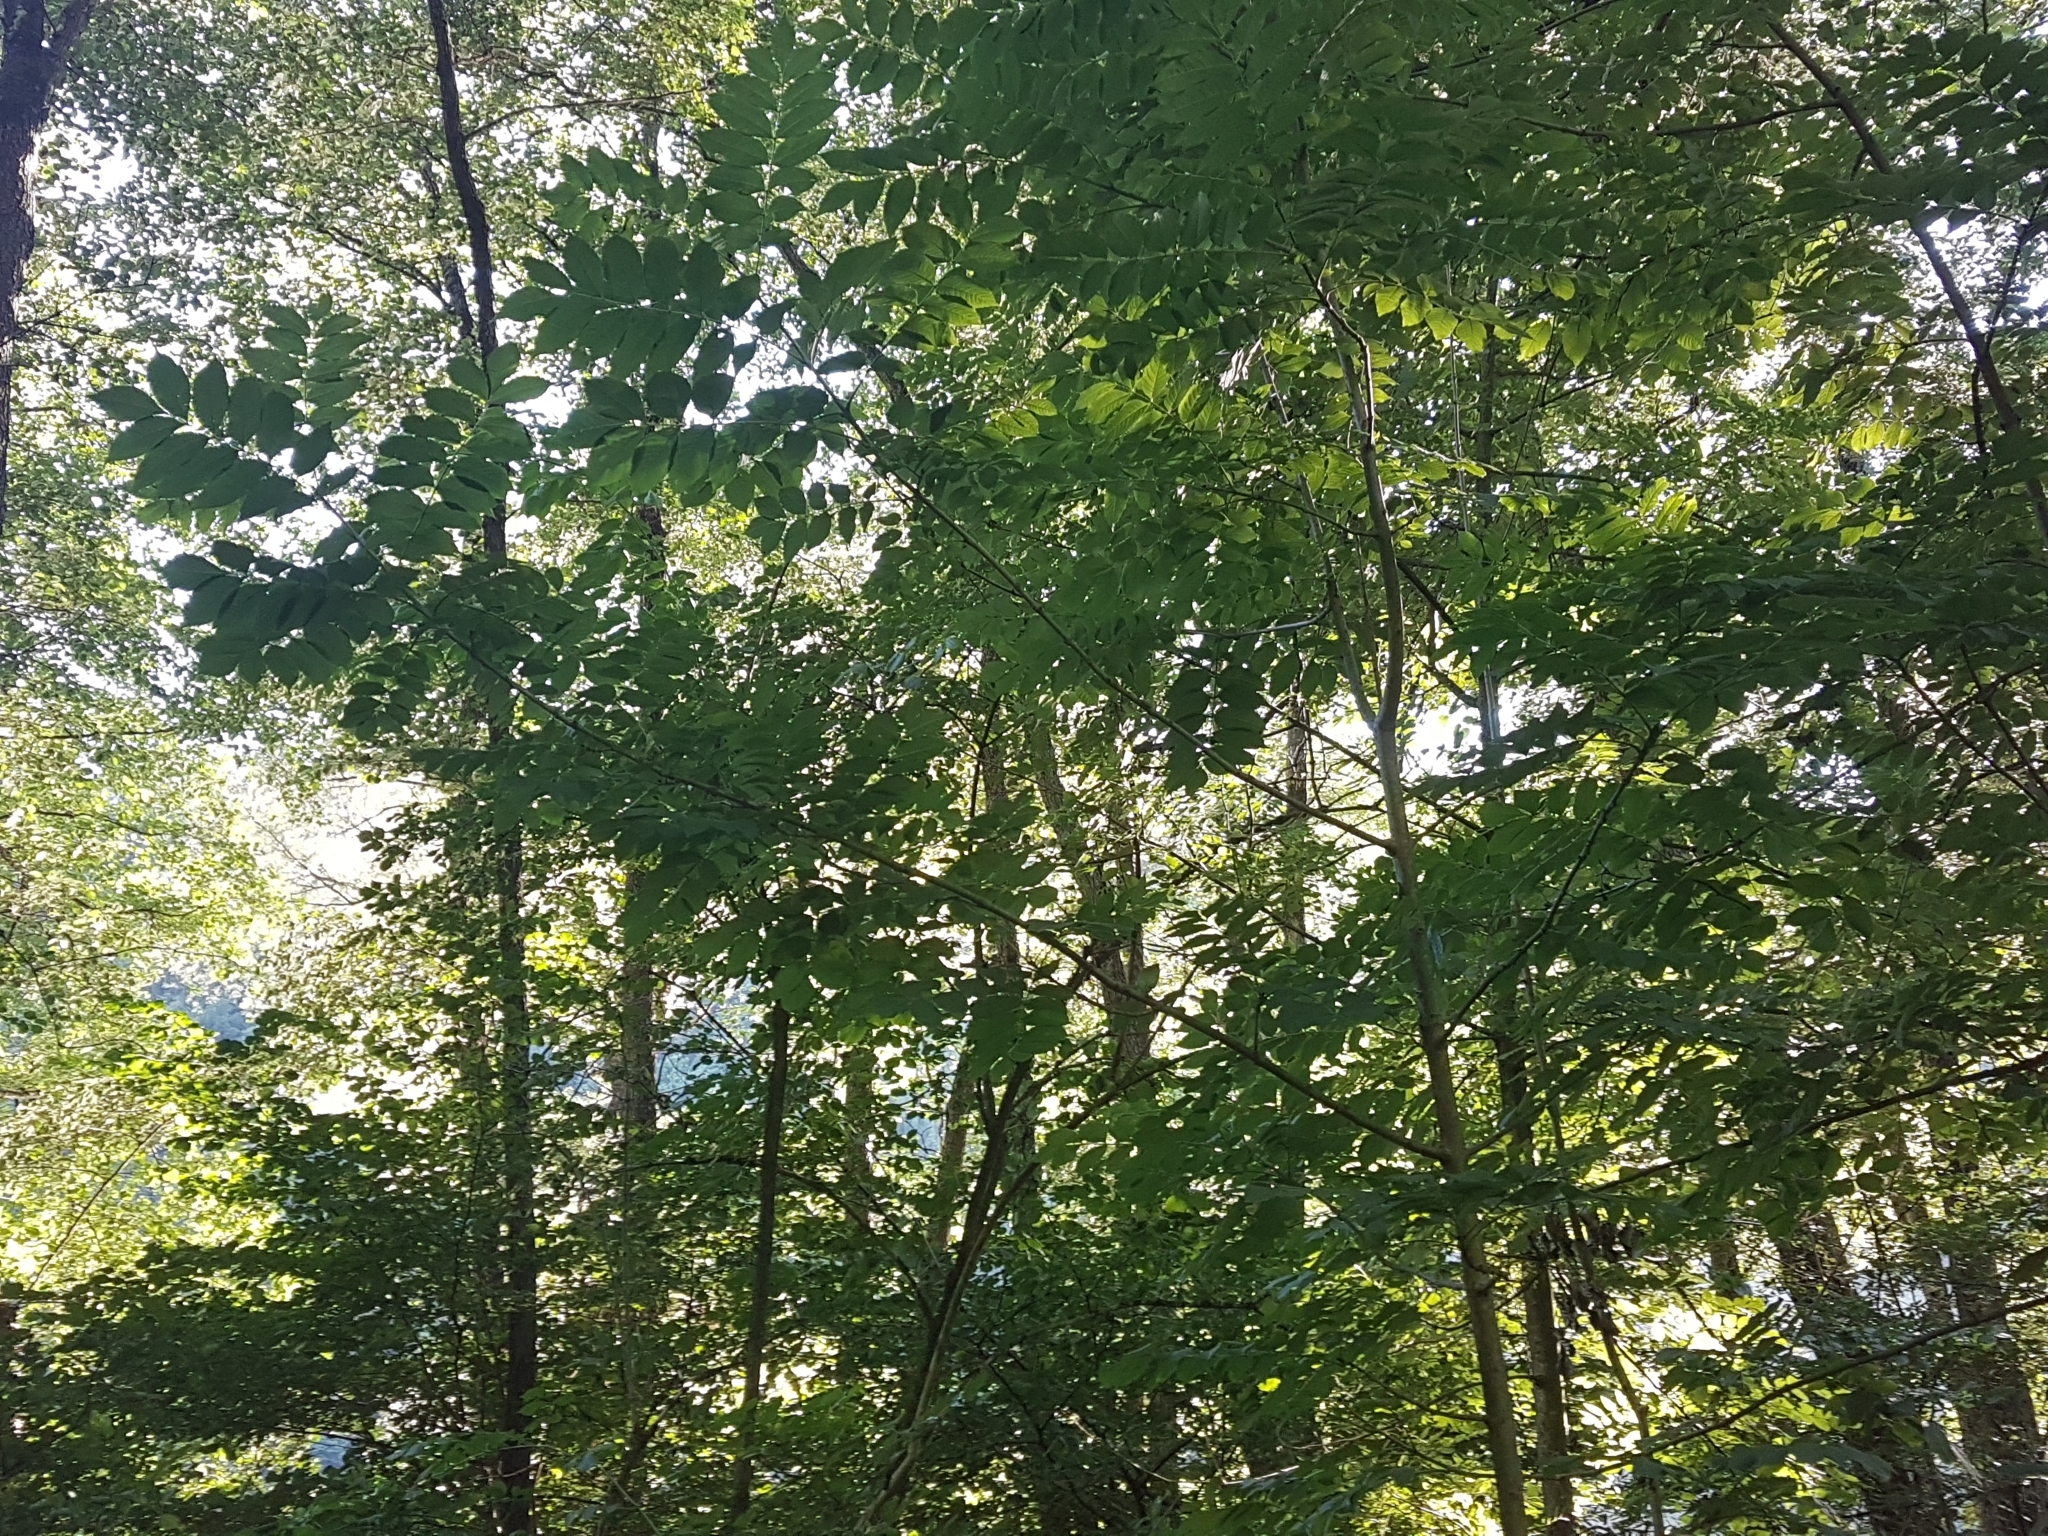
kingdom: Plantae
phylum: Tracheophyta
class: Magnoliopsida
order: Lamiales
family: Oleaceae
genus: Fraxinus
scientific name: Fraxinus excelsior
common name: European ash
